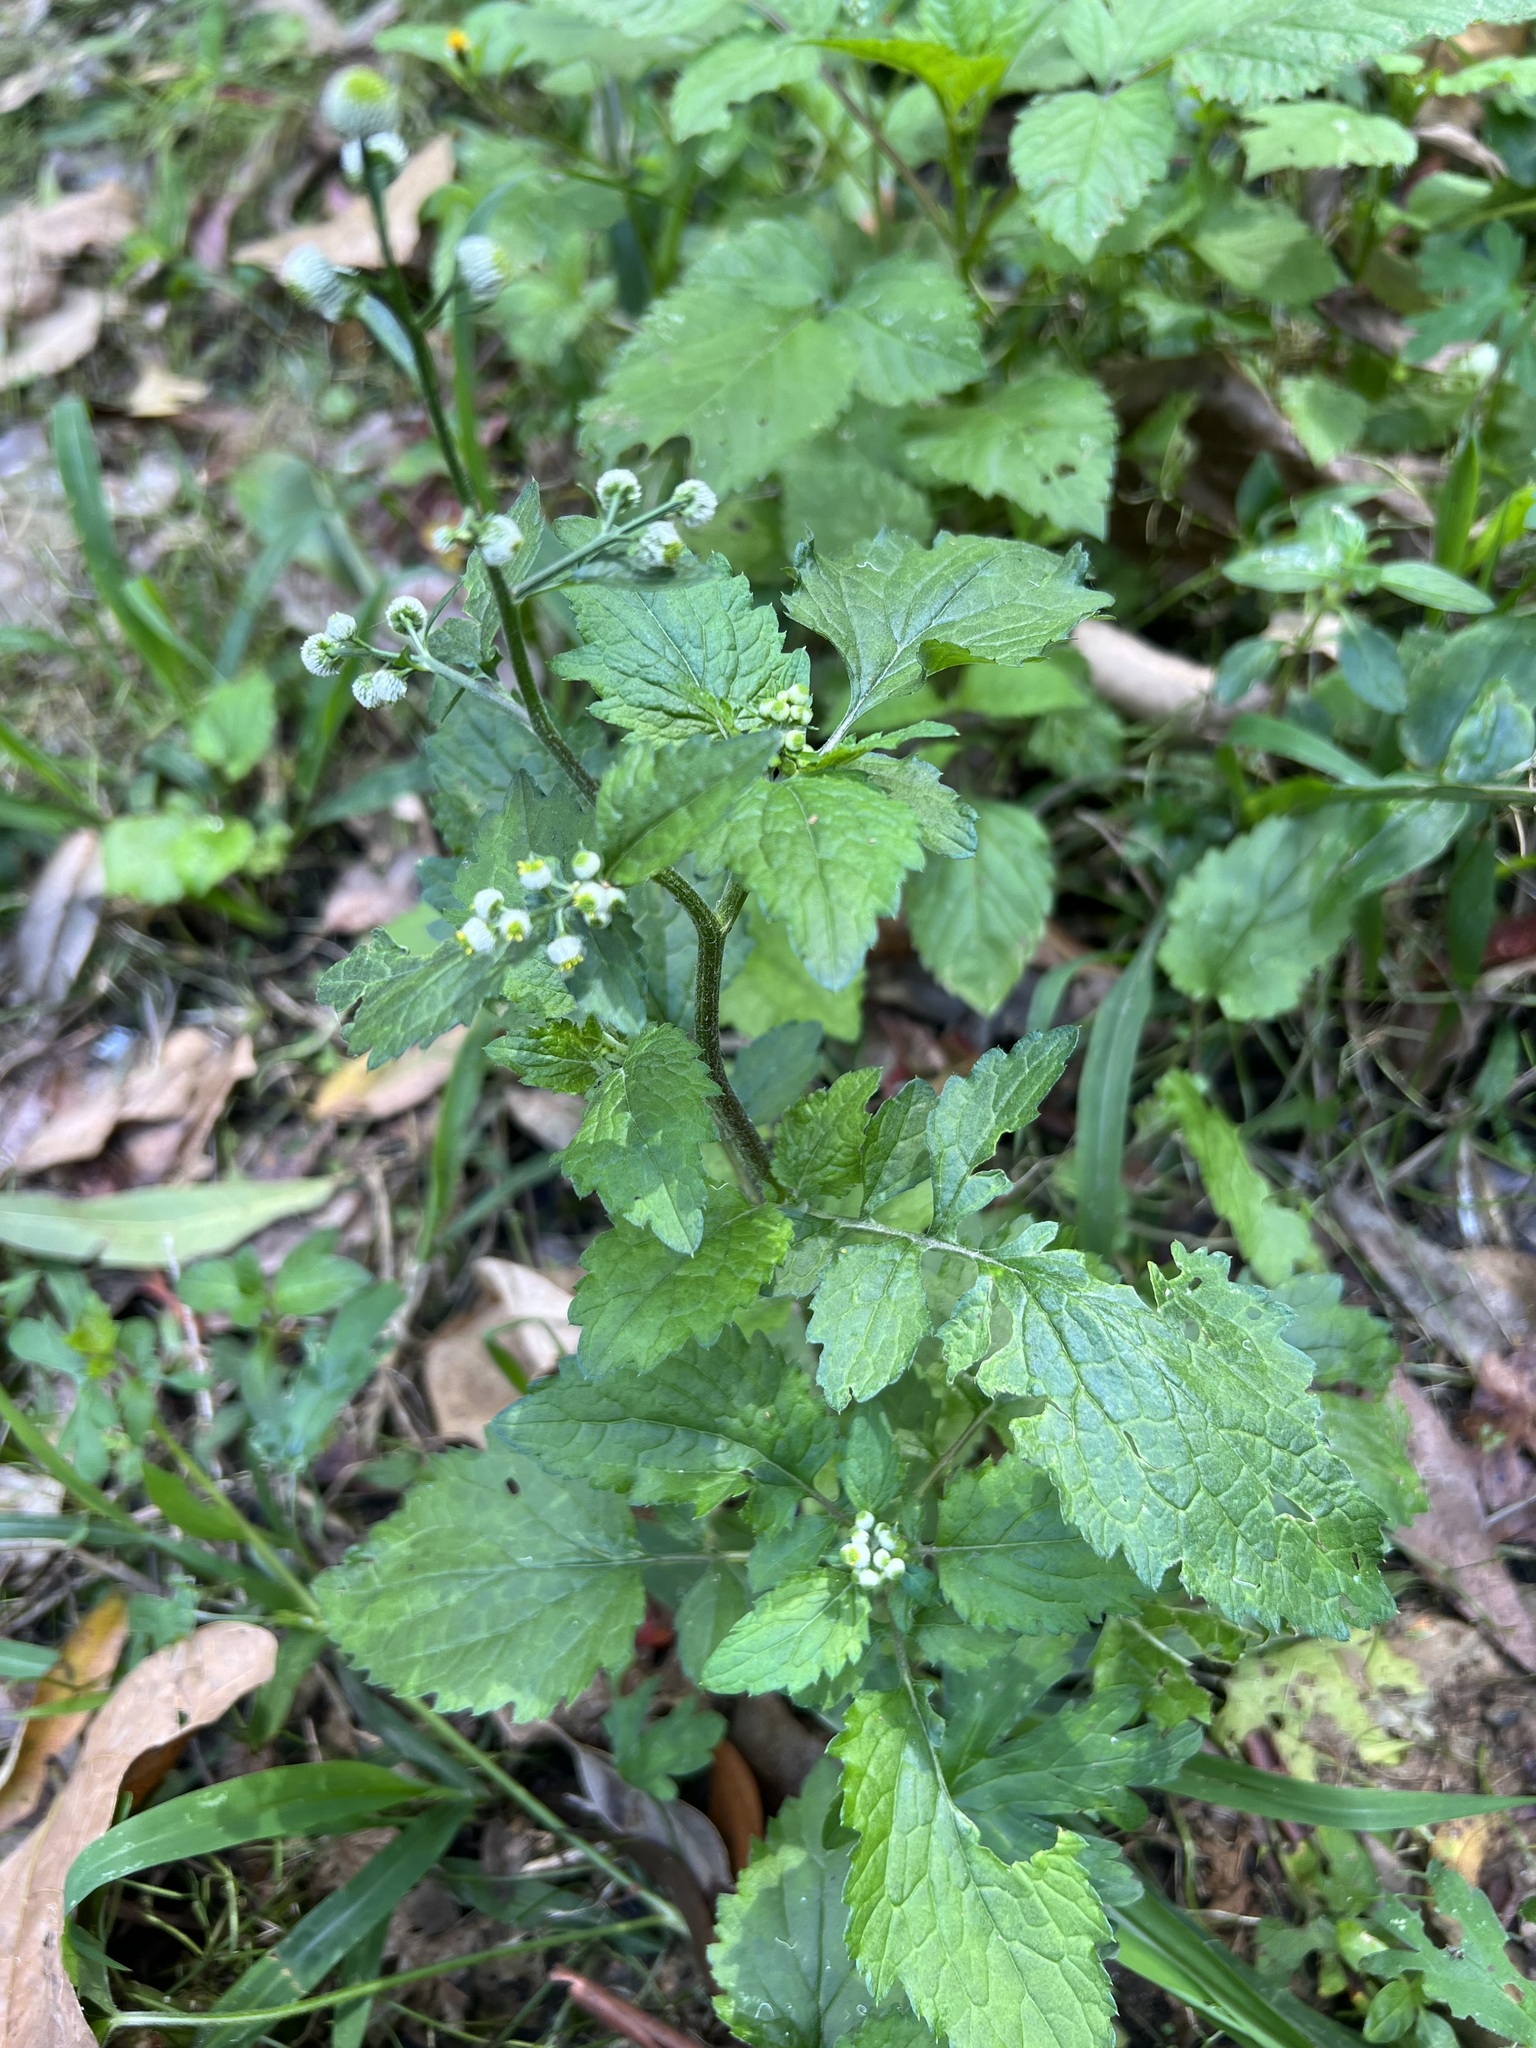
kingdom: Plantae
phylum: Tracheophyta
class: Magnoliopsida
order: Asterales
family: Asteraceae
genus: Dichrocephala
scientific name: Dichrocephala integrifolia
